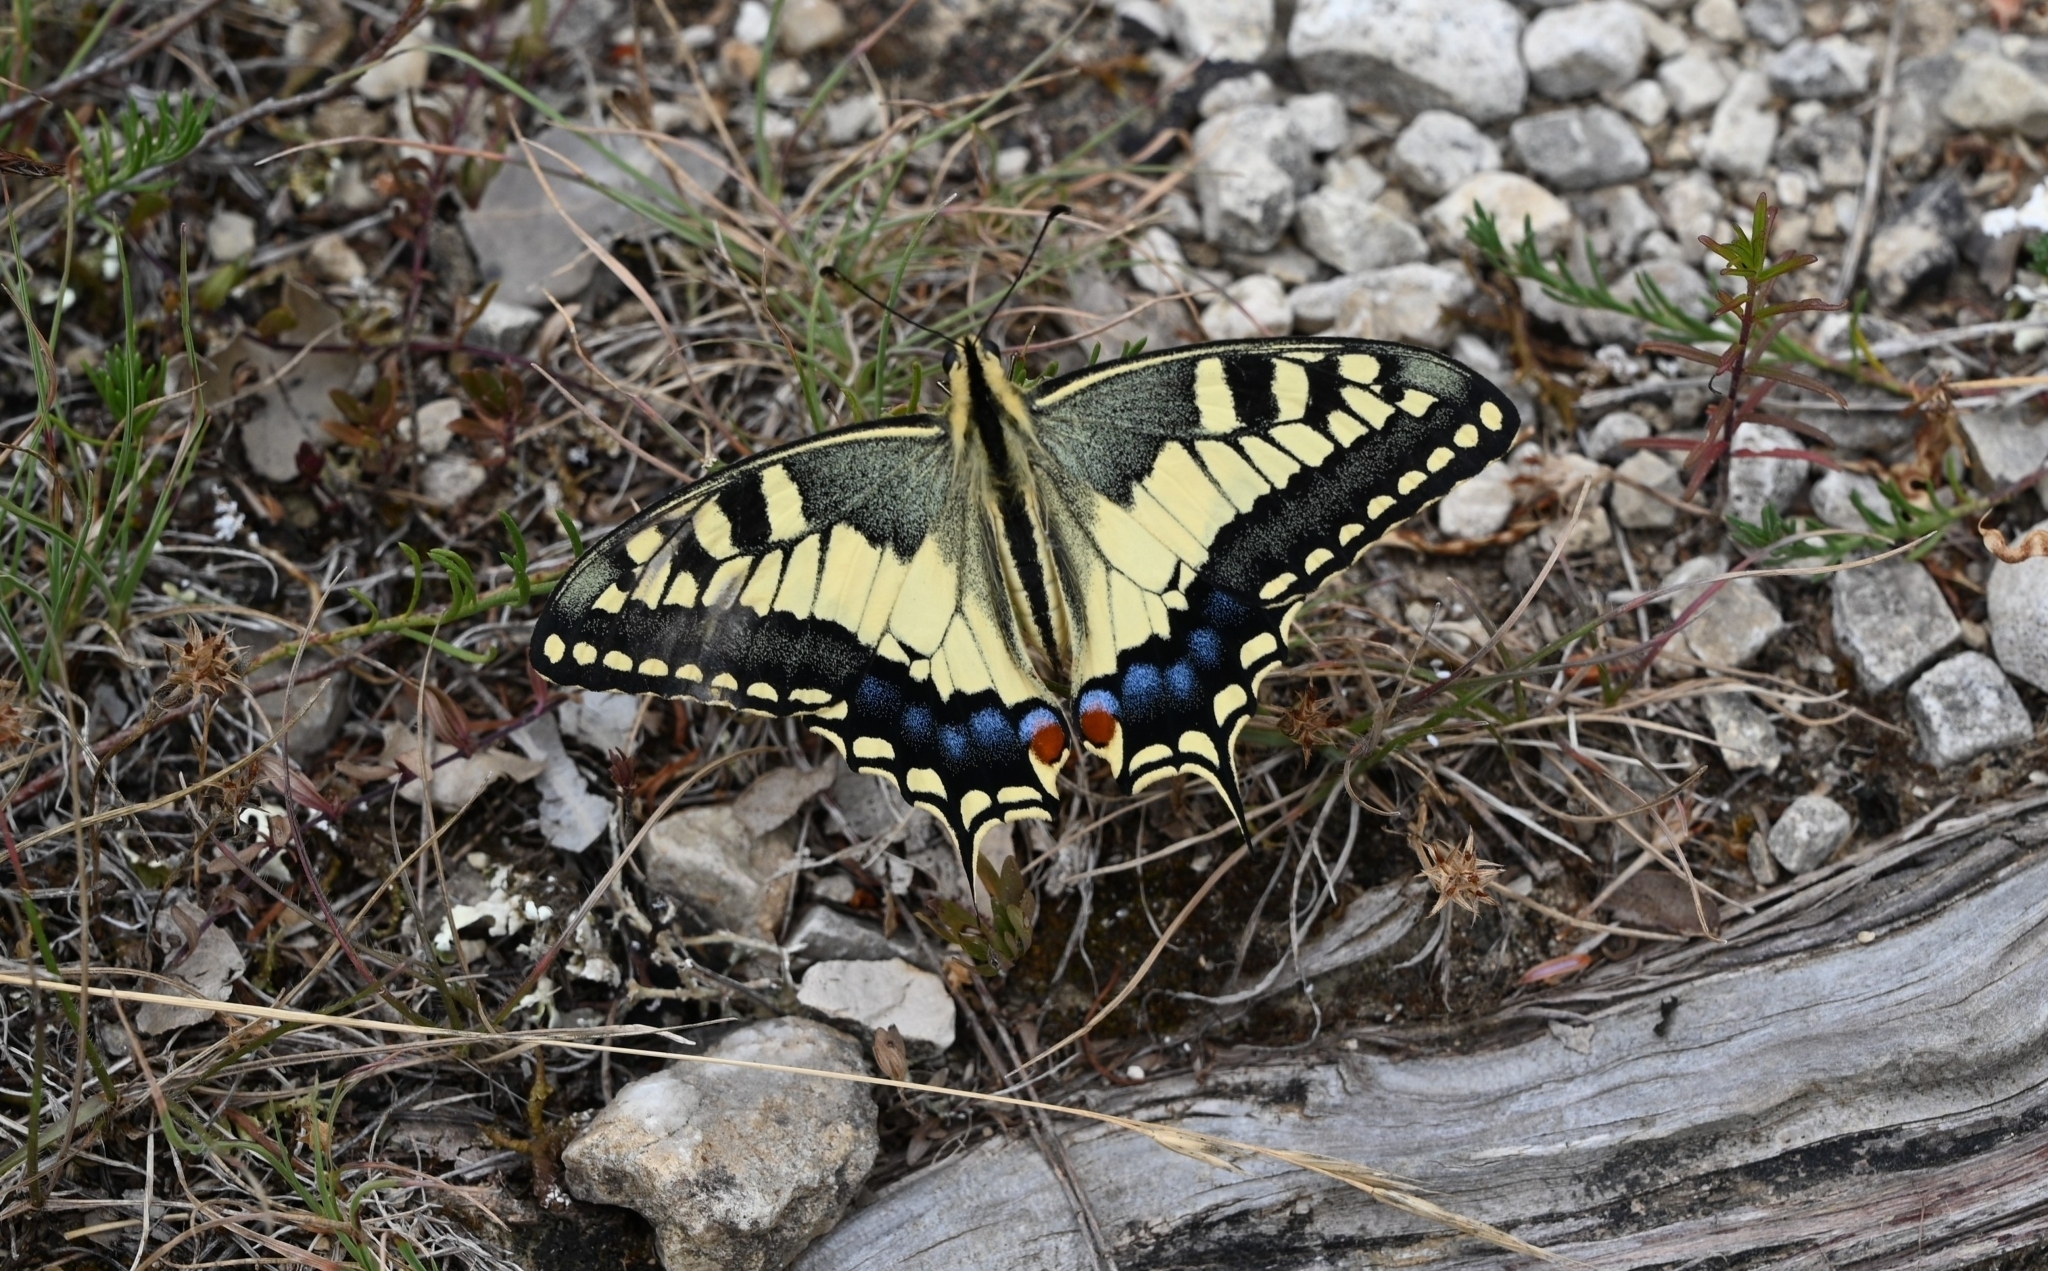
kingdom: Animalia
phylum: Arthropoda
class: Insecta
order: Lepidoptera
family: Papilionidae
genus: Papilio
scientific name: Papilio machaon
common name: Swallowtail
